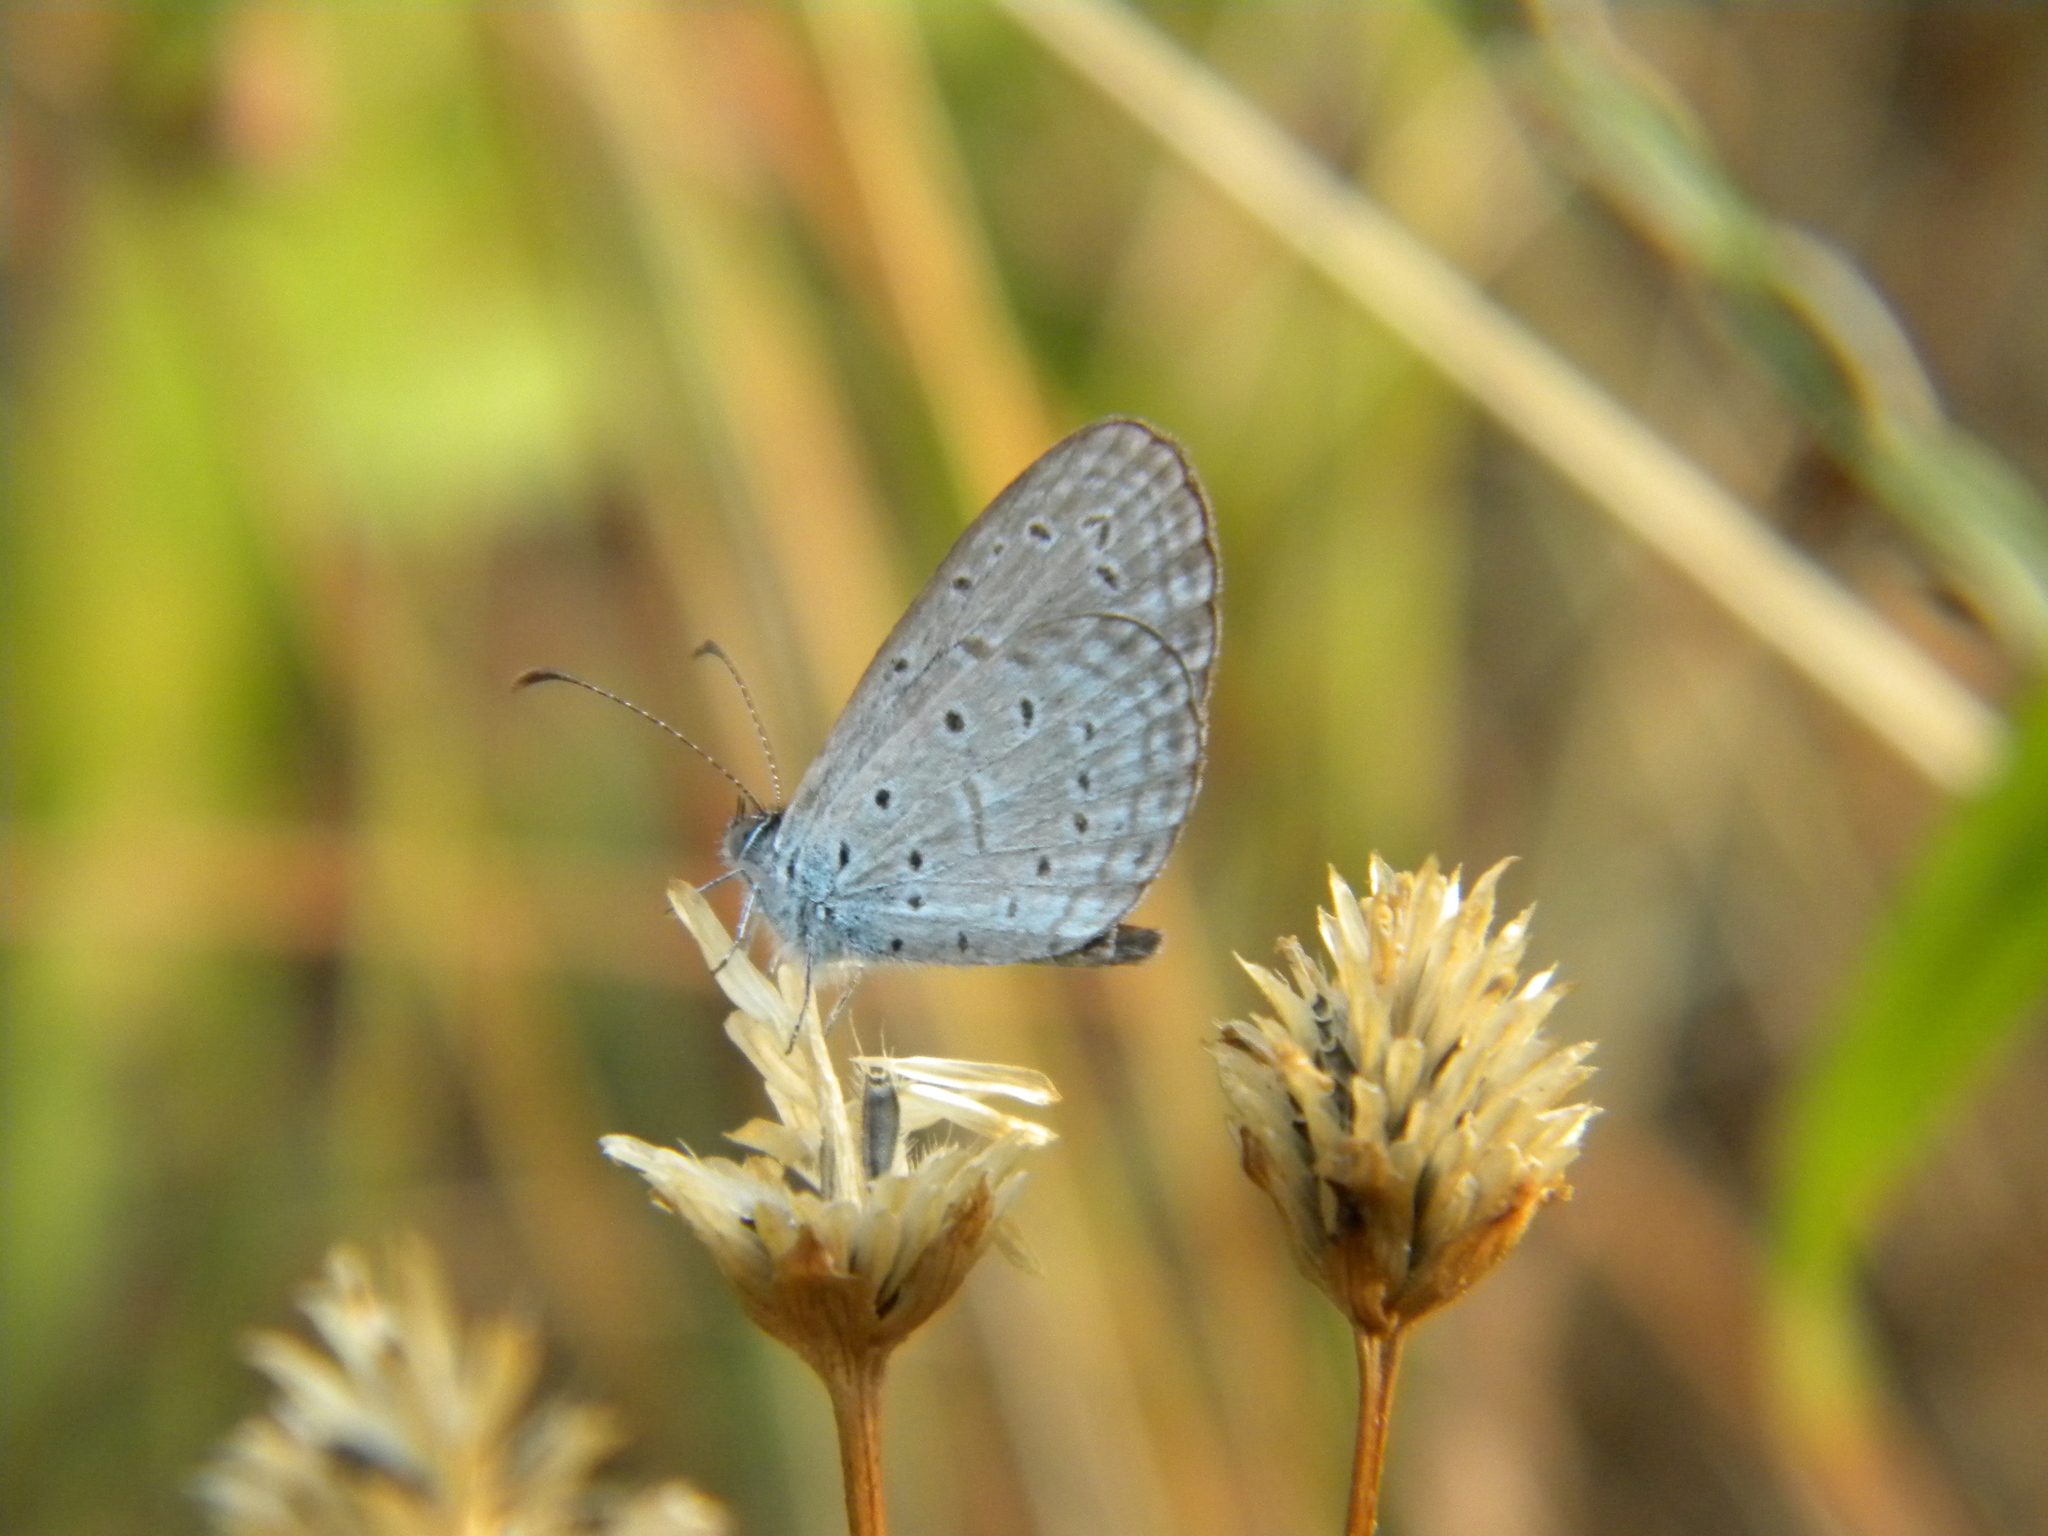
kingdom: Animalia
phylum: Arthropoda
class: Insecta
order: Lepidoptera
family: Lycaenidae
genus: Zizula
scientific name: Zizula hylax
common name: Gaika blue
